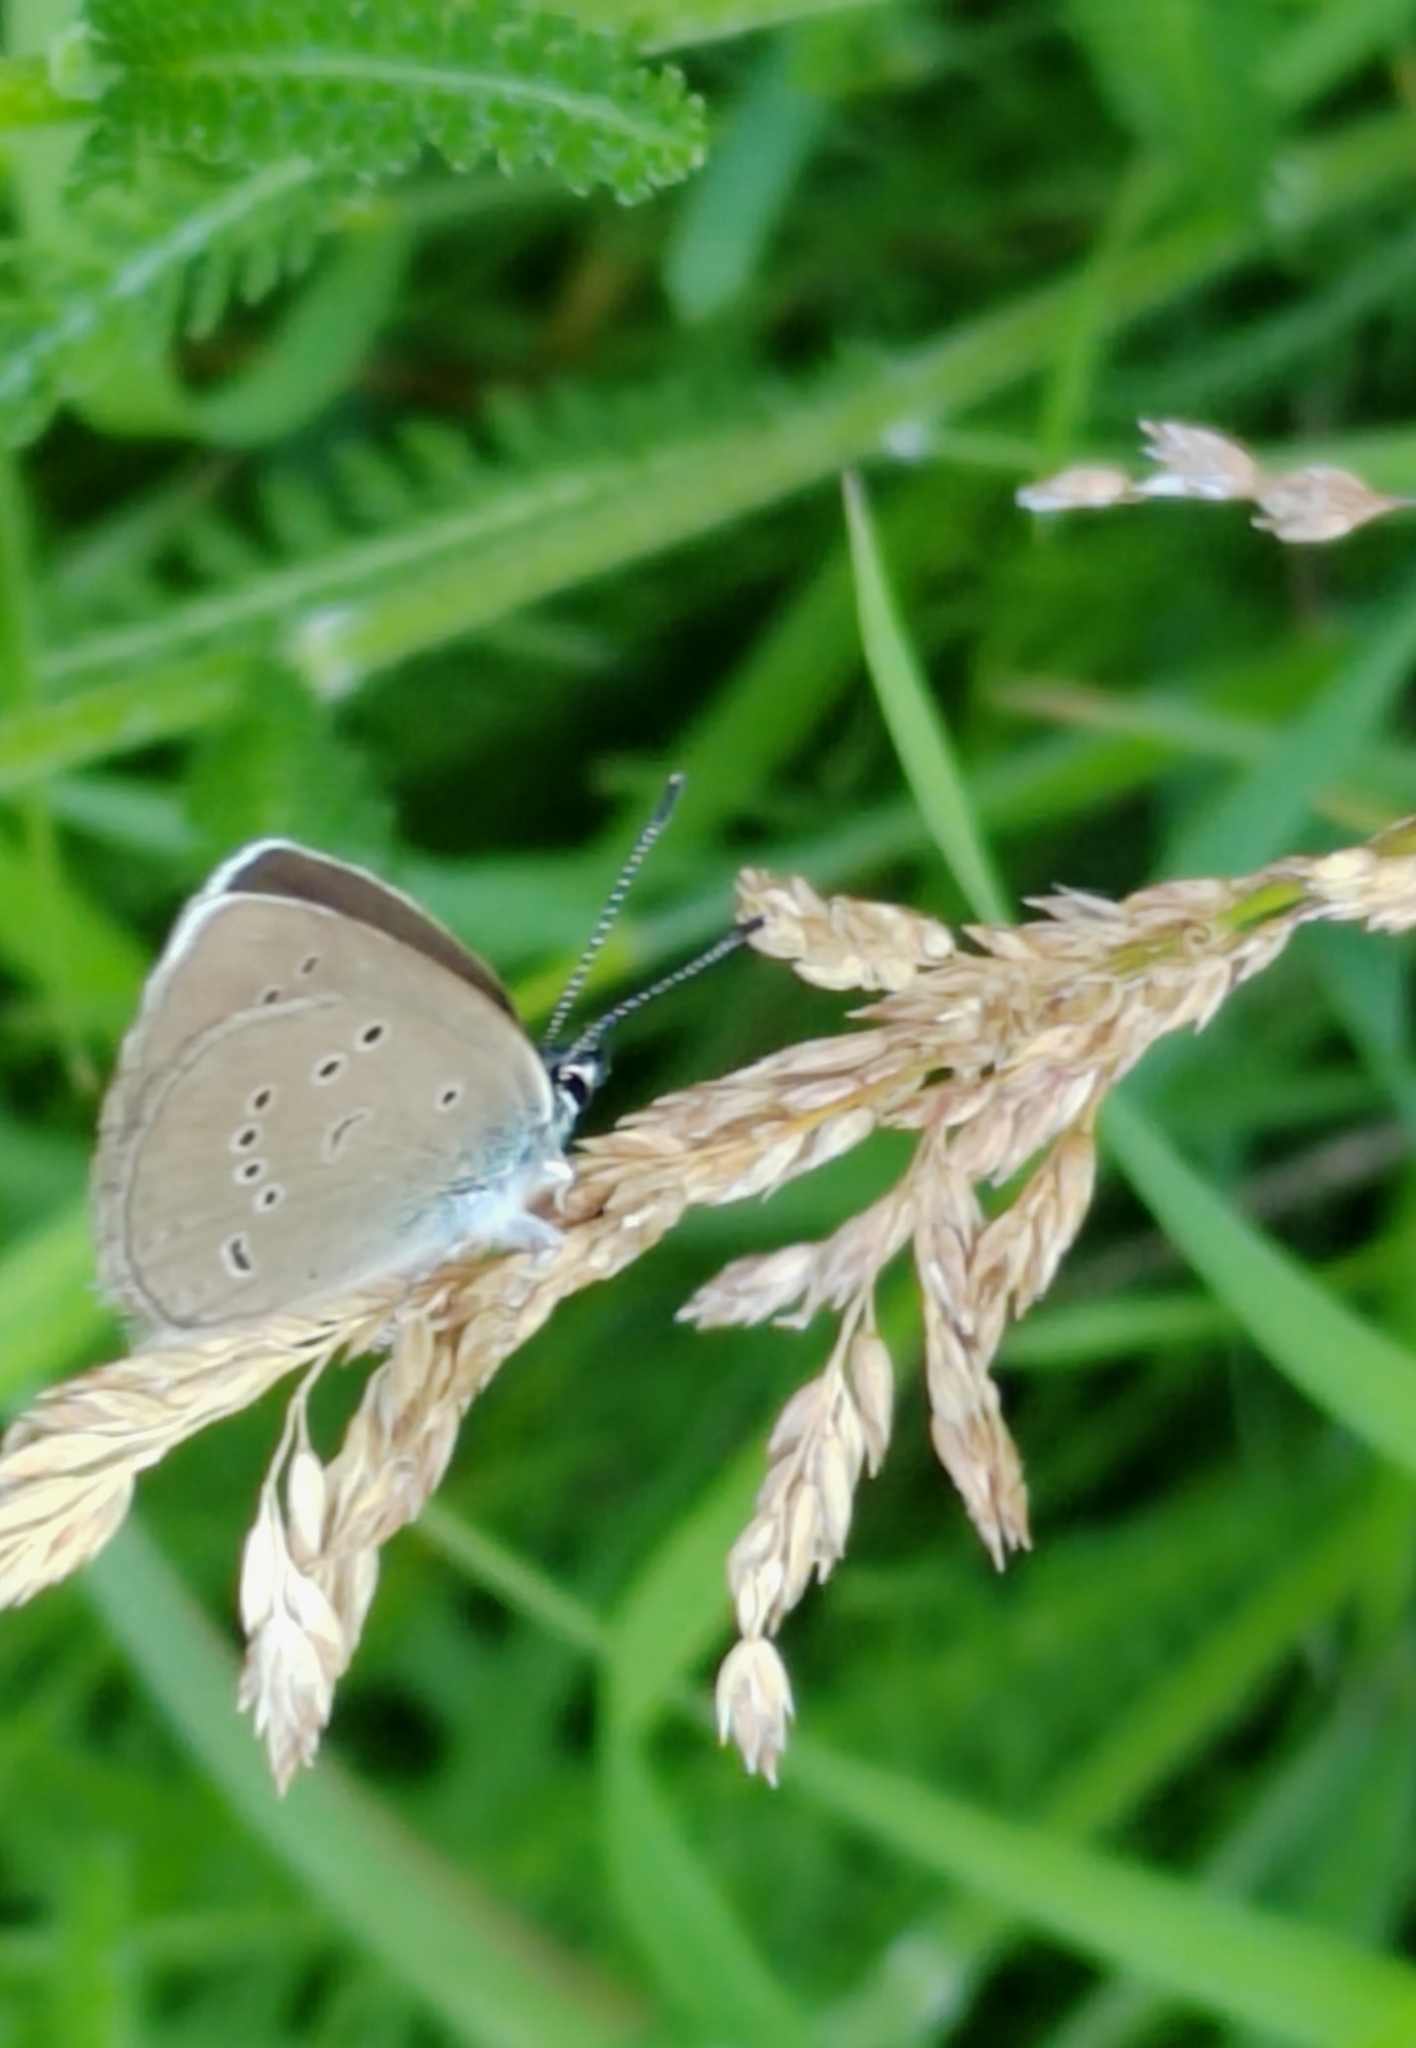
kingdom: Animalia
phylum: Arthropoda
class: Insecta
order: Lepidoptera
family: Lycaenidae
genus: Cyaniris
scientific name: Cyaniris semiargus
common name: Mazarine blue
